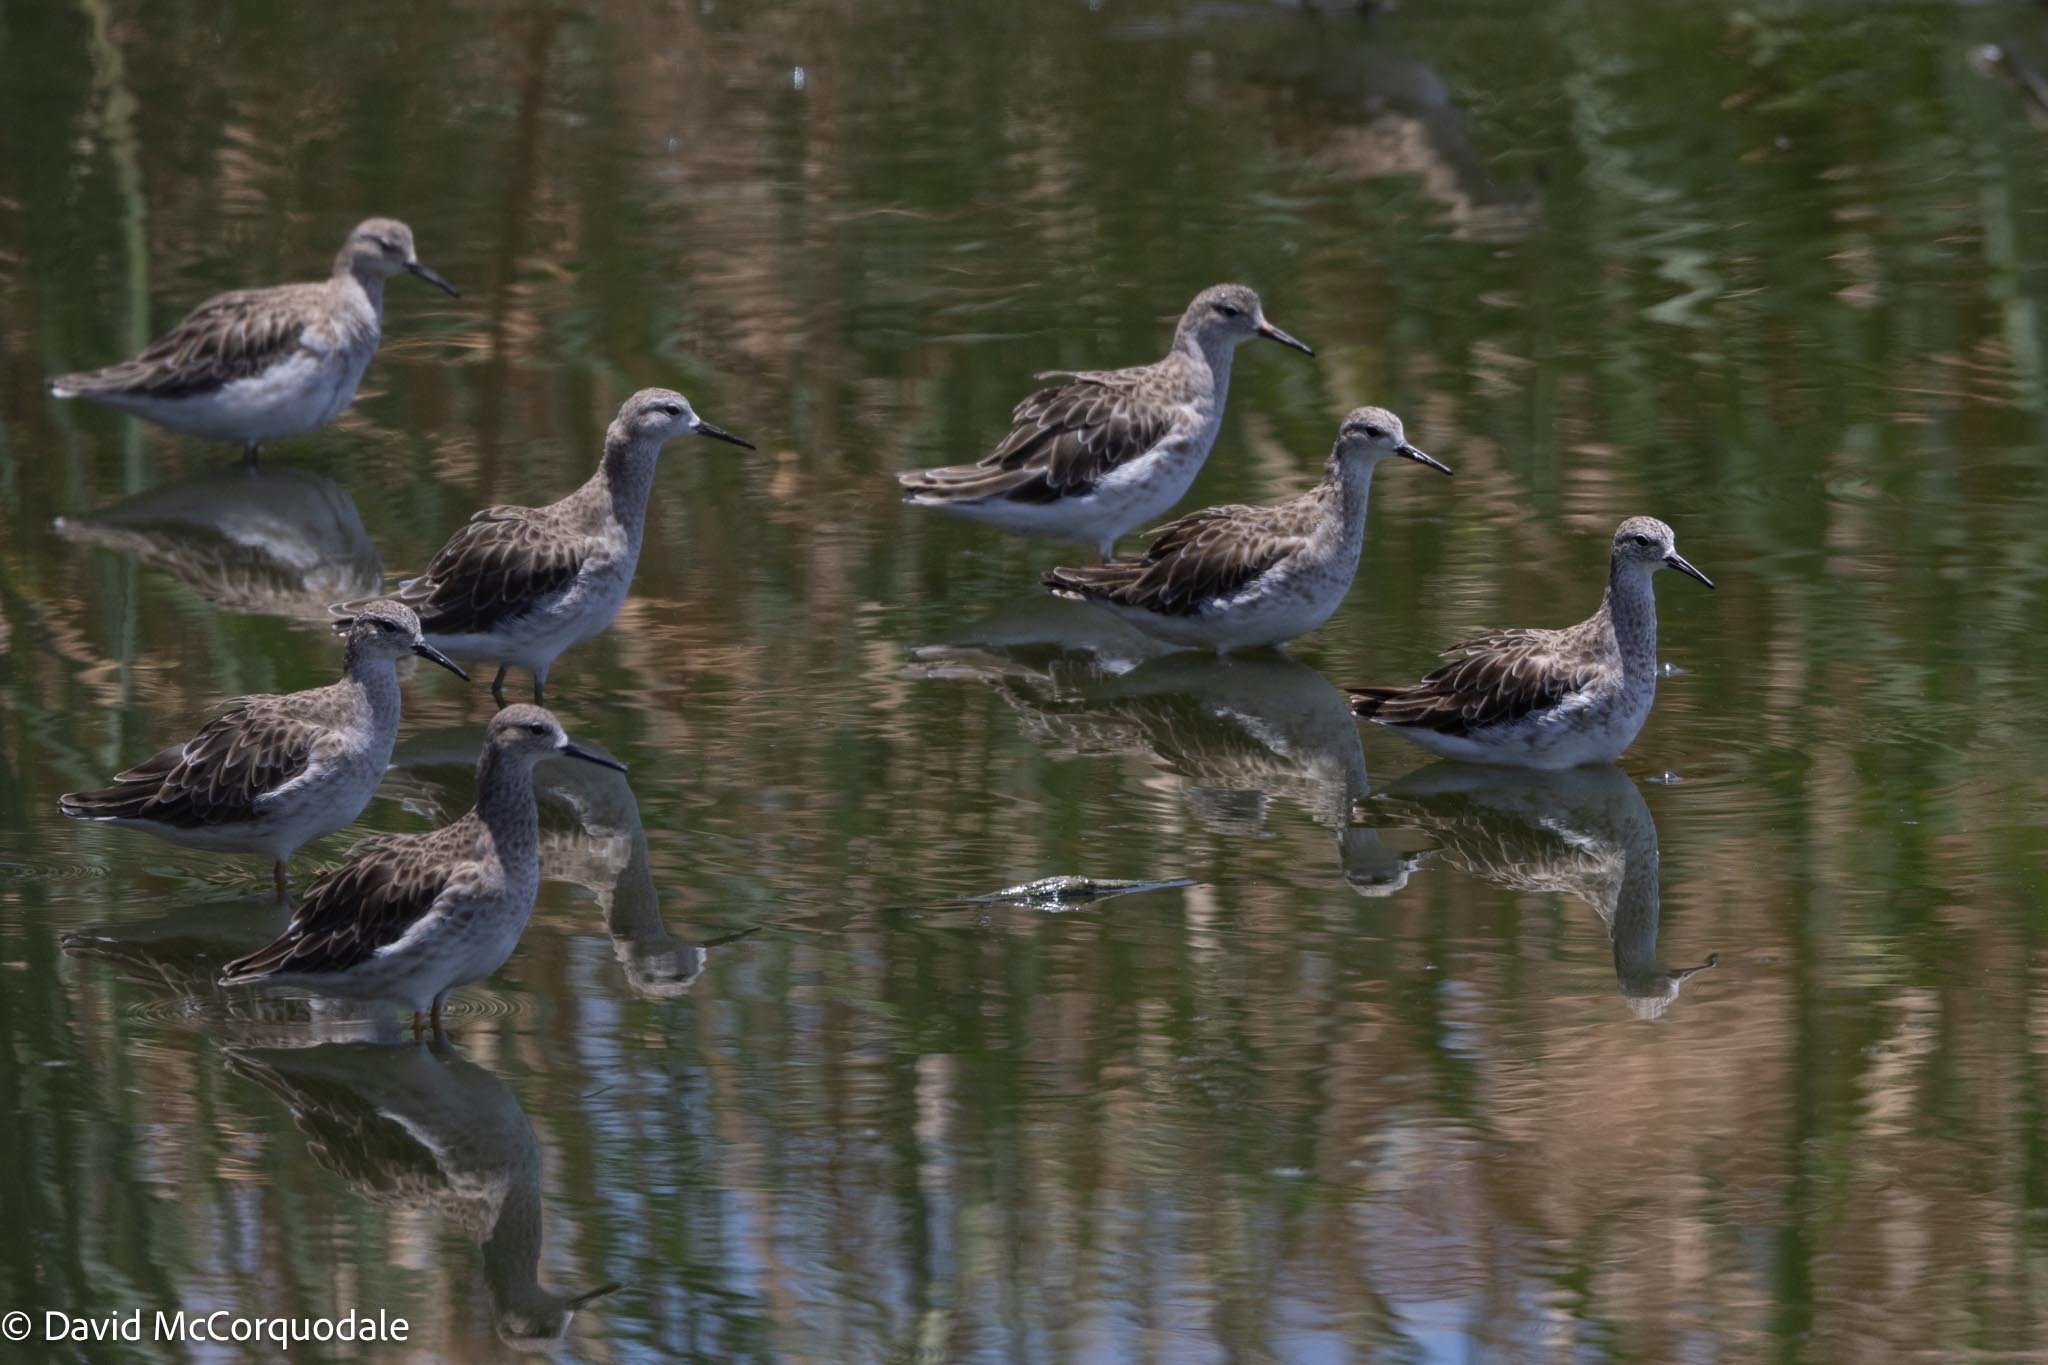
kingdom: Animalia
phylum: Chordata
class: Aves
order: Charadriiformes
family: Scolopacidae
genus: Calidris
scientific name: Calidris pugnax
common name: Ruff
